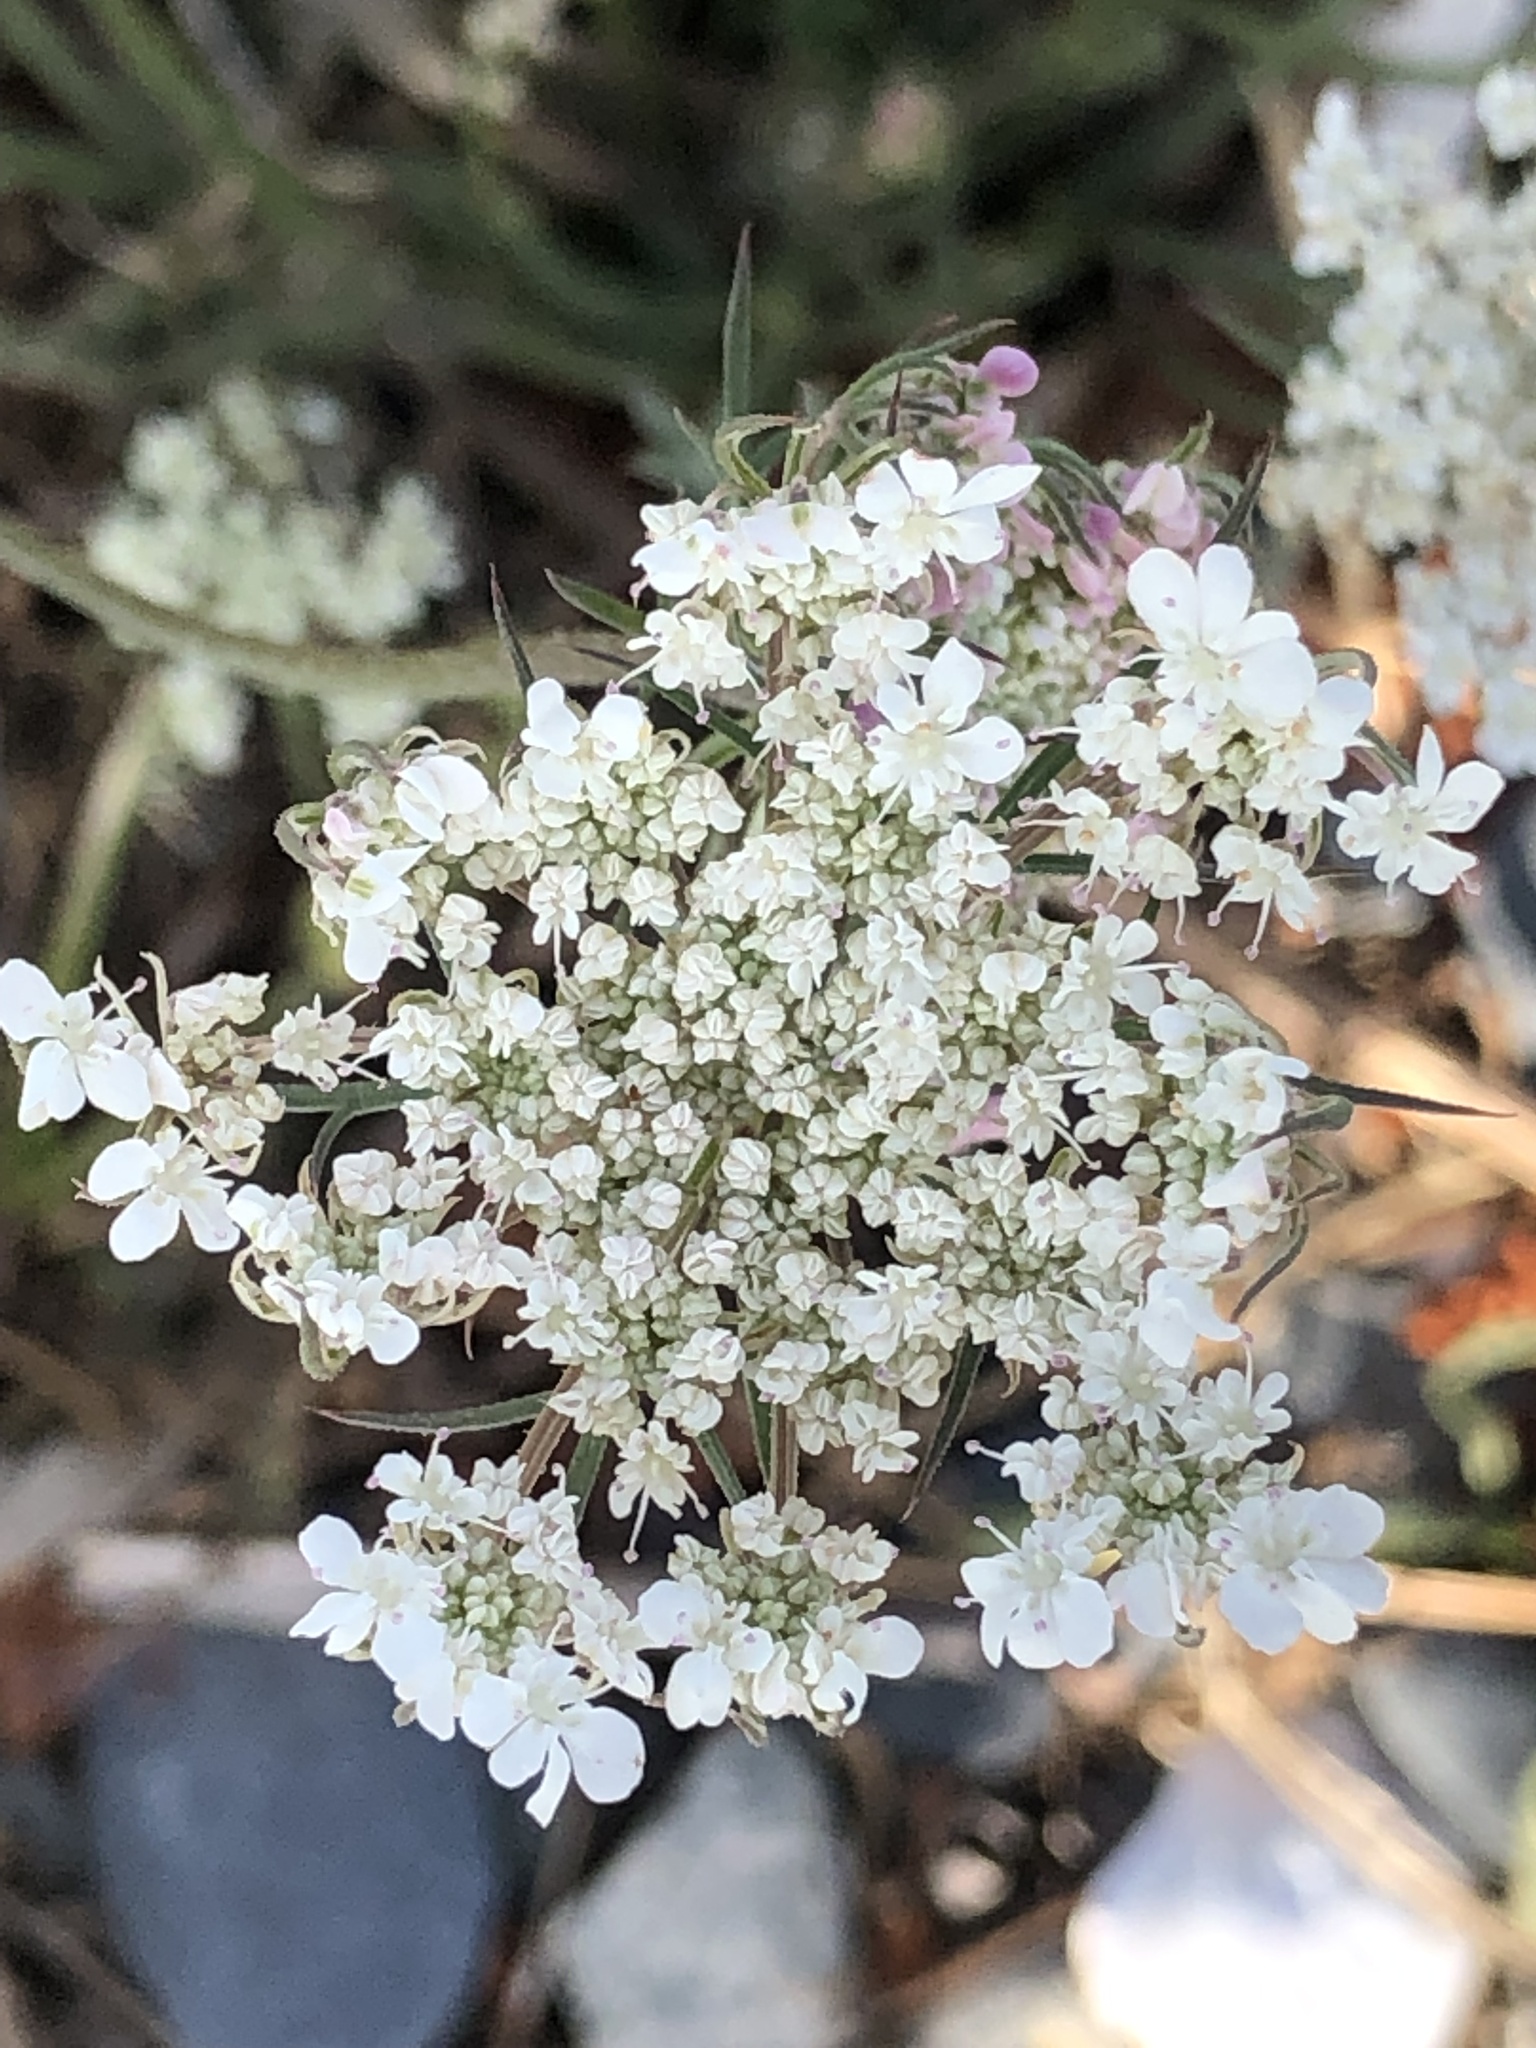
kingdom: Plantae
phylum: Tracheophyta
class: Magnoliopsida
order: Apiales
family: Apiaceae
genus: Daucus
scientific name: Daucus carota
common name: Wild carrot
